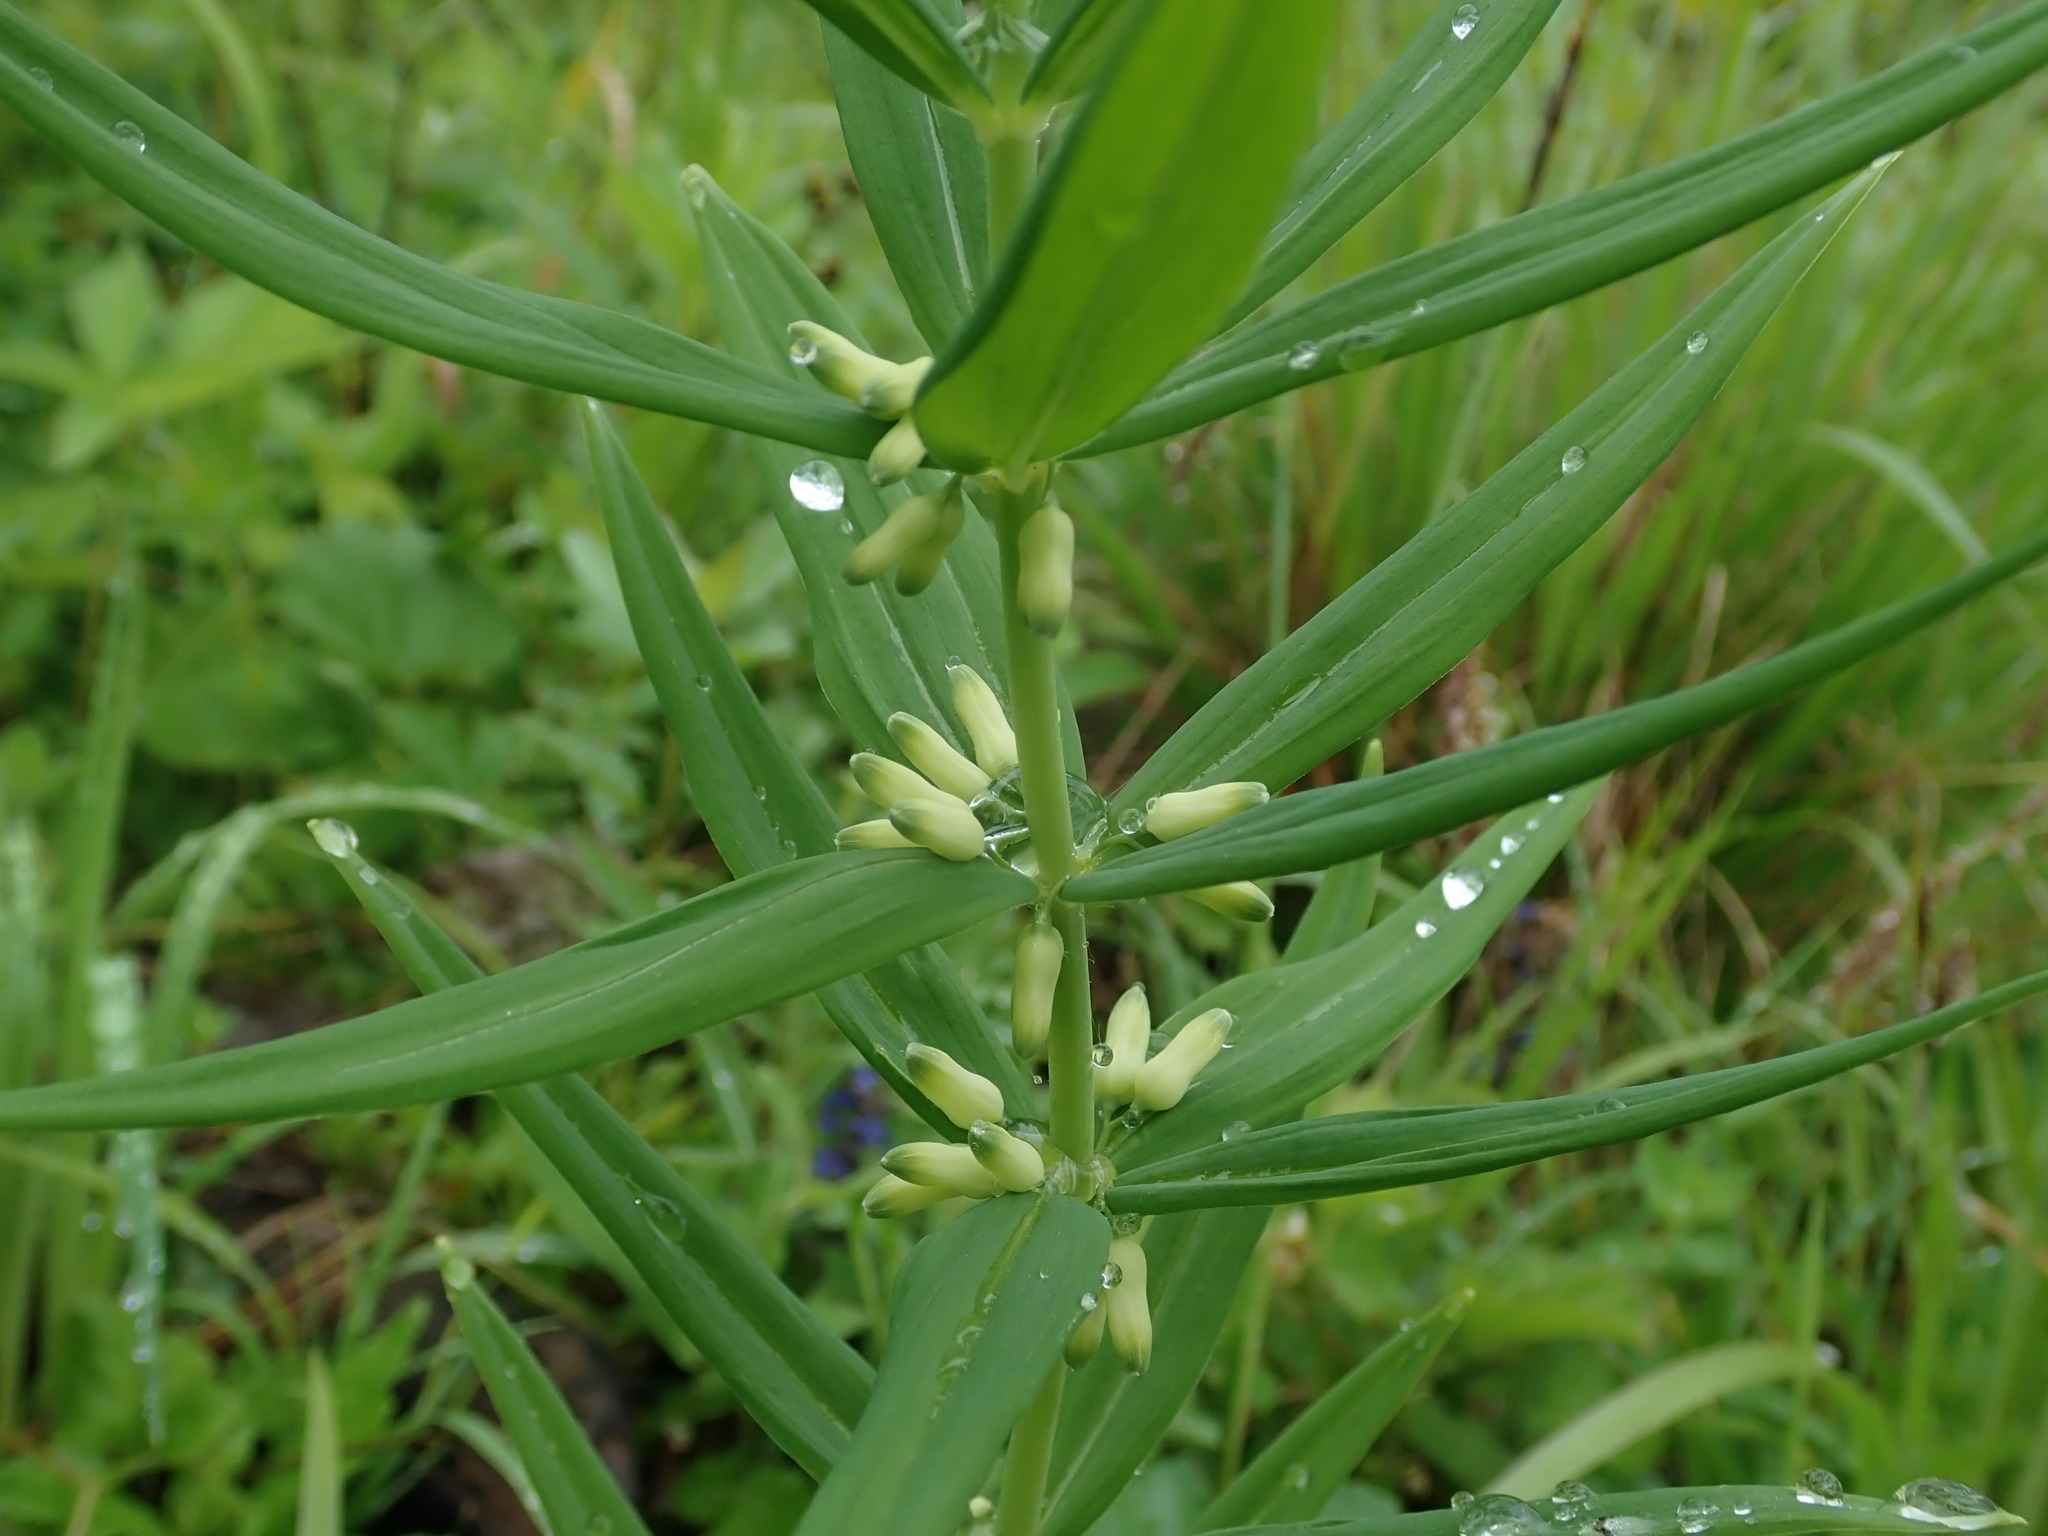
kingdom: Plantae
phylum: Tracheophyta
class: Liliopsida
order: Asparagales
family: Asparagaceae
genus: Polygonatum
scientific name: Polygonatum verticillatum
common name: Whorled solomon's-seal
